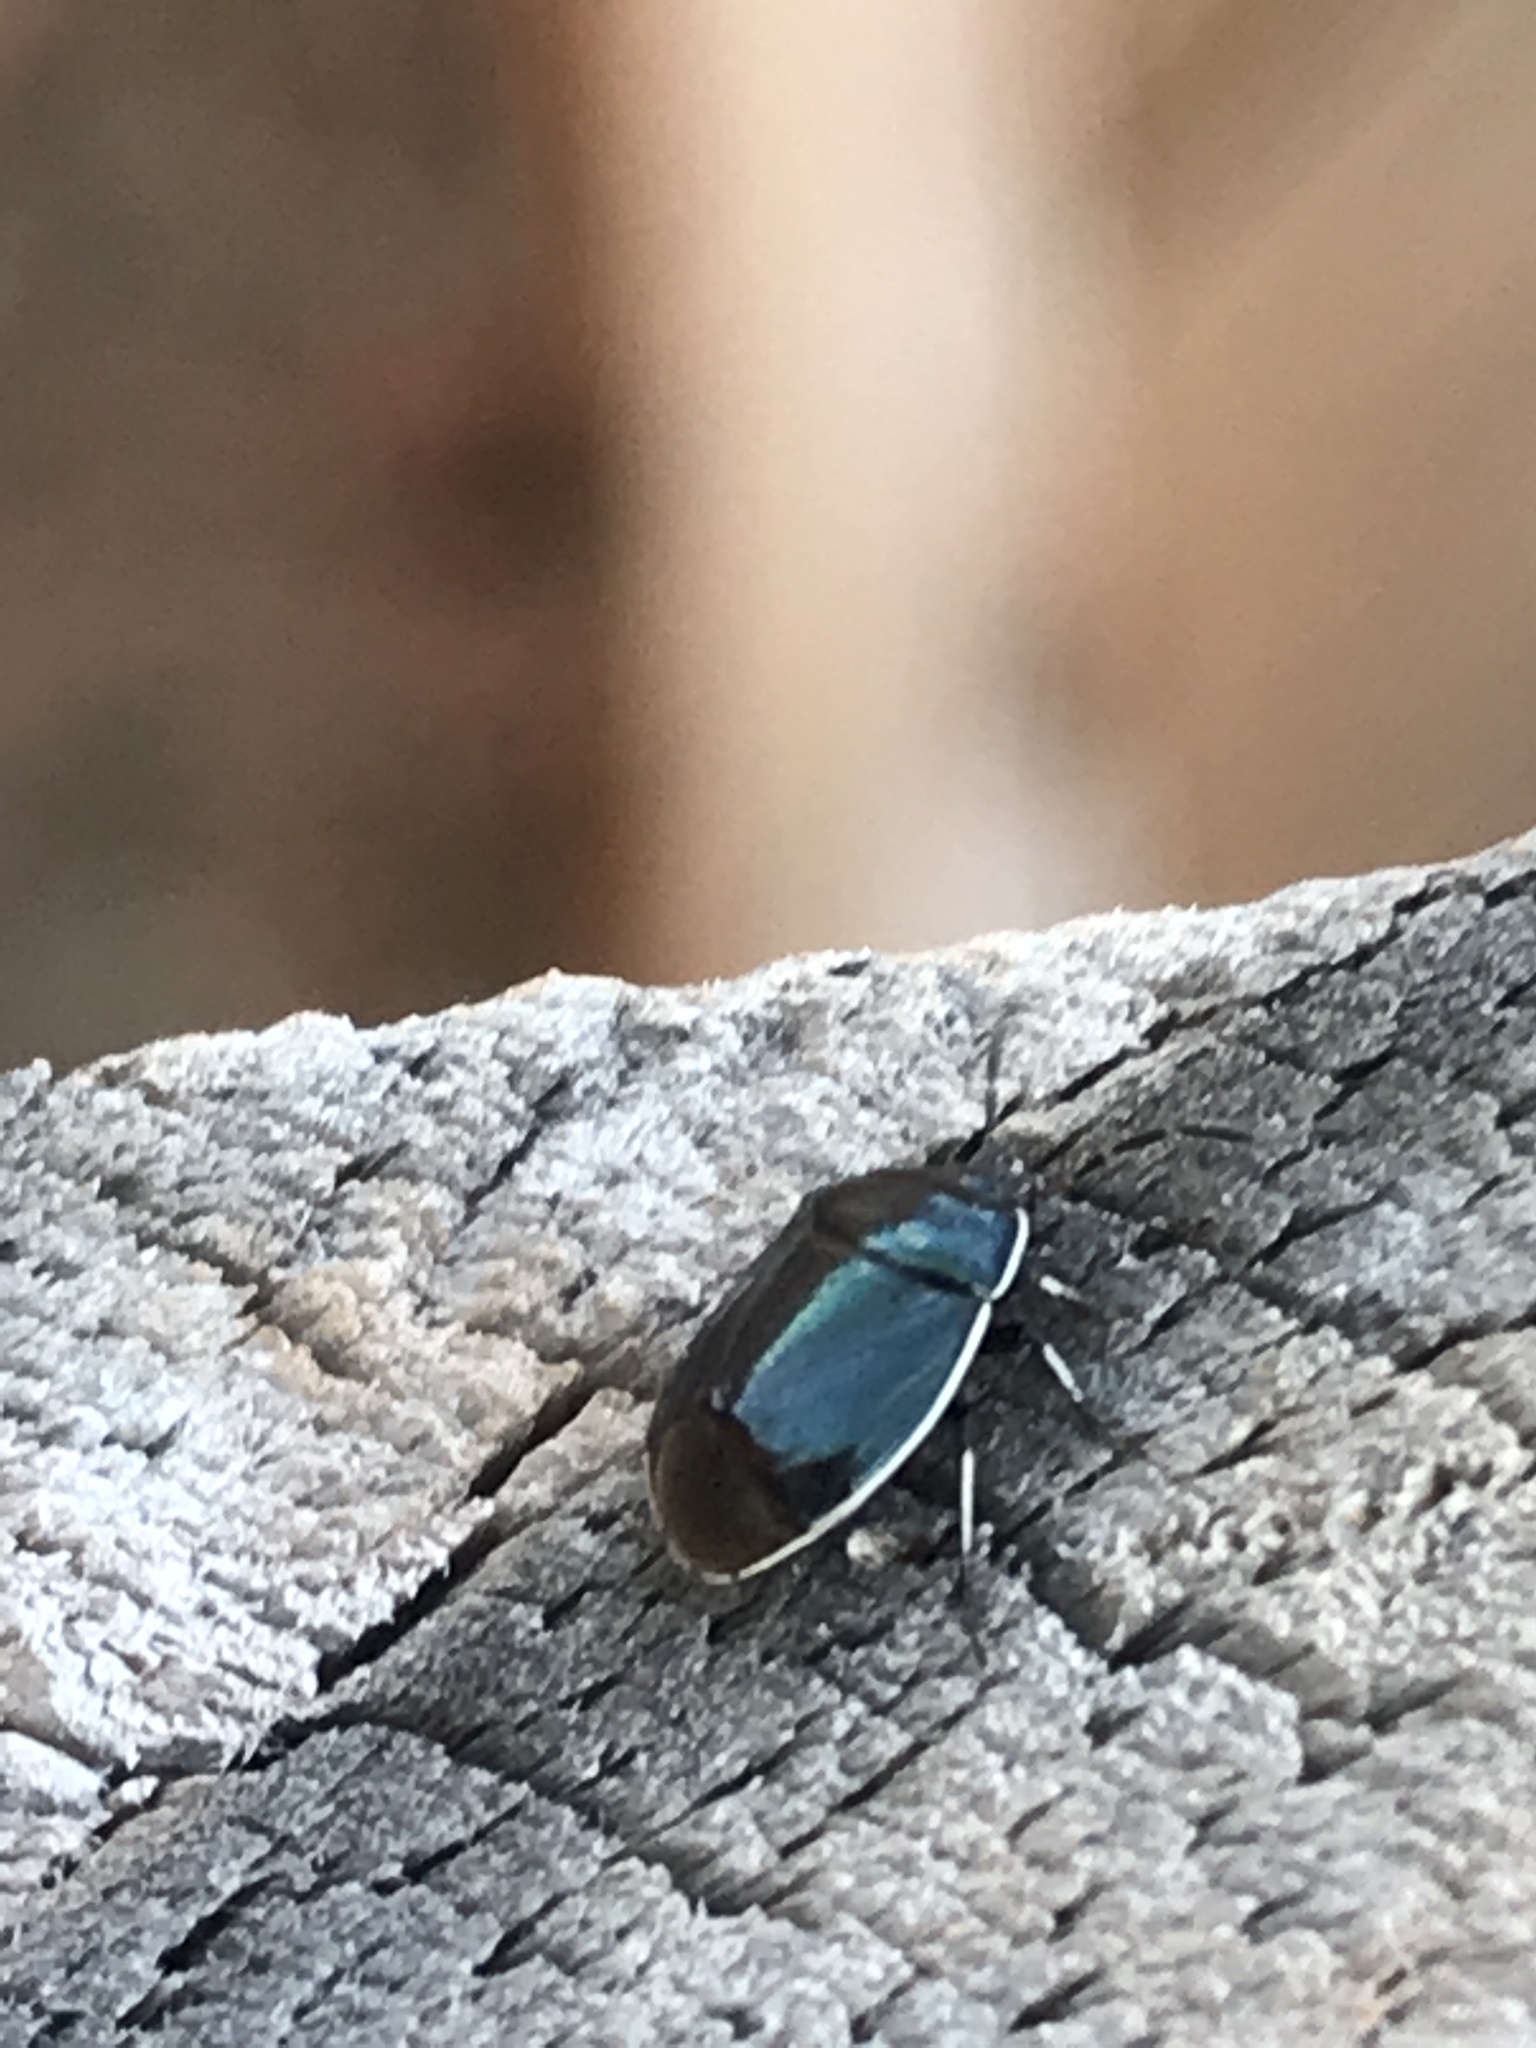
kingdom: Animalia
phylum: Arthropoda
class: Insecta
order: Hemiptera
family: Cydnidae
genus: Sehirus
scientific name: Sehirus cinctus
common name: White-margined burrower bug
